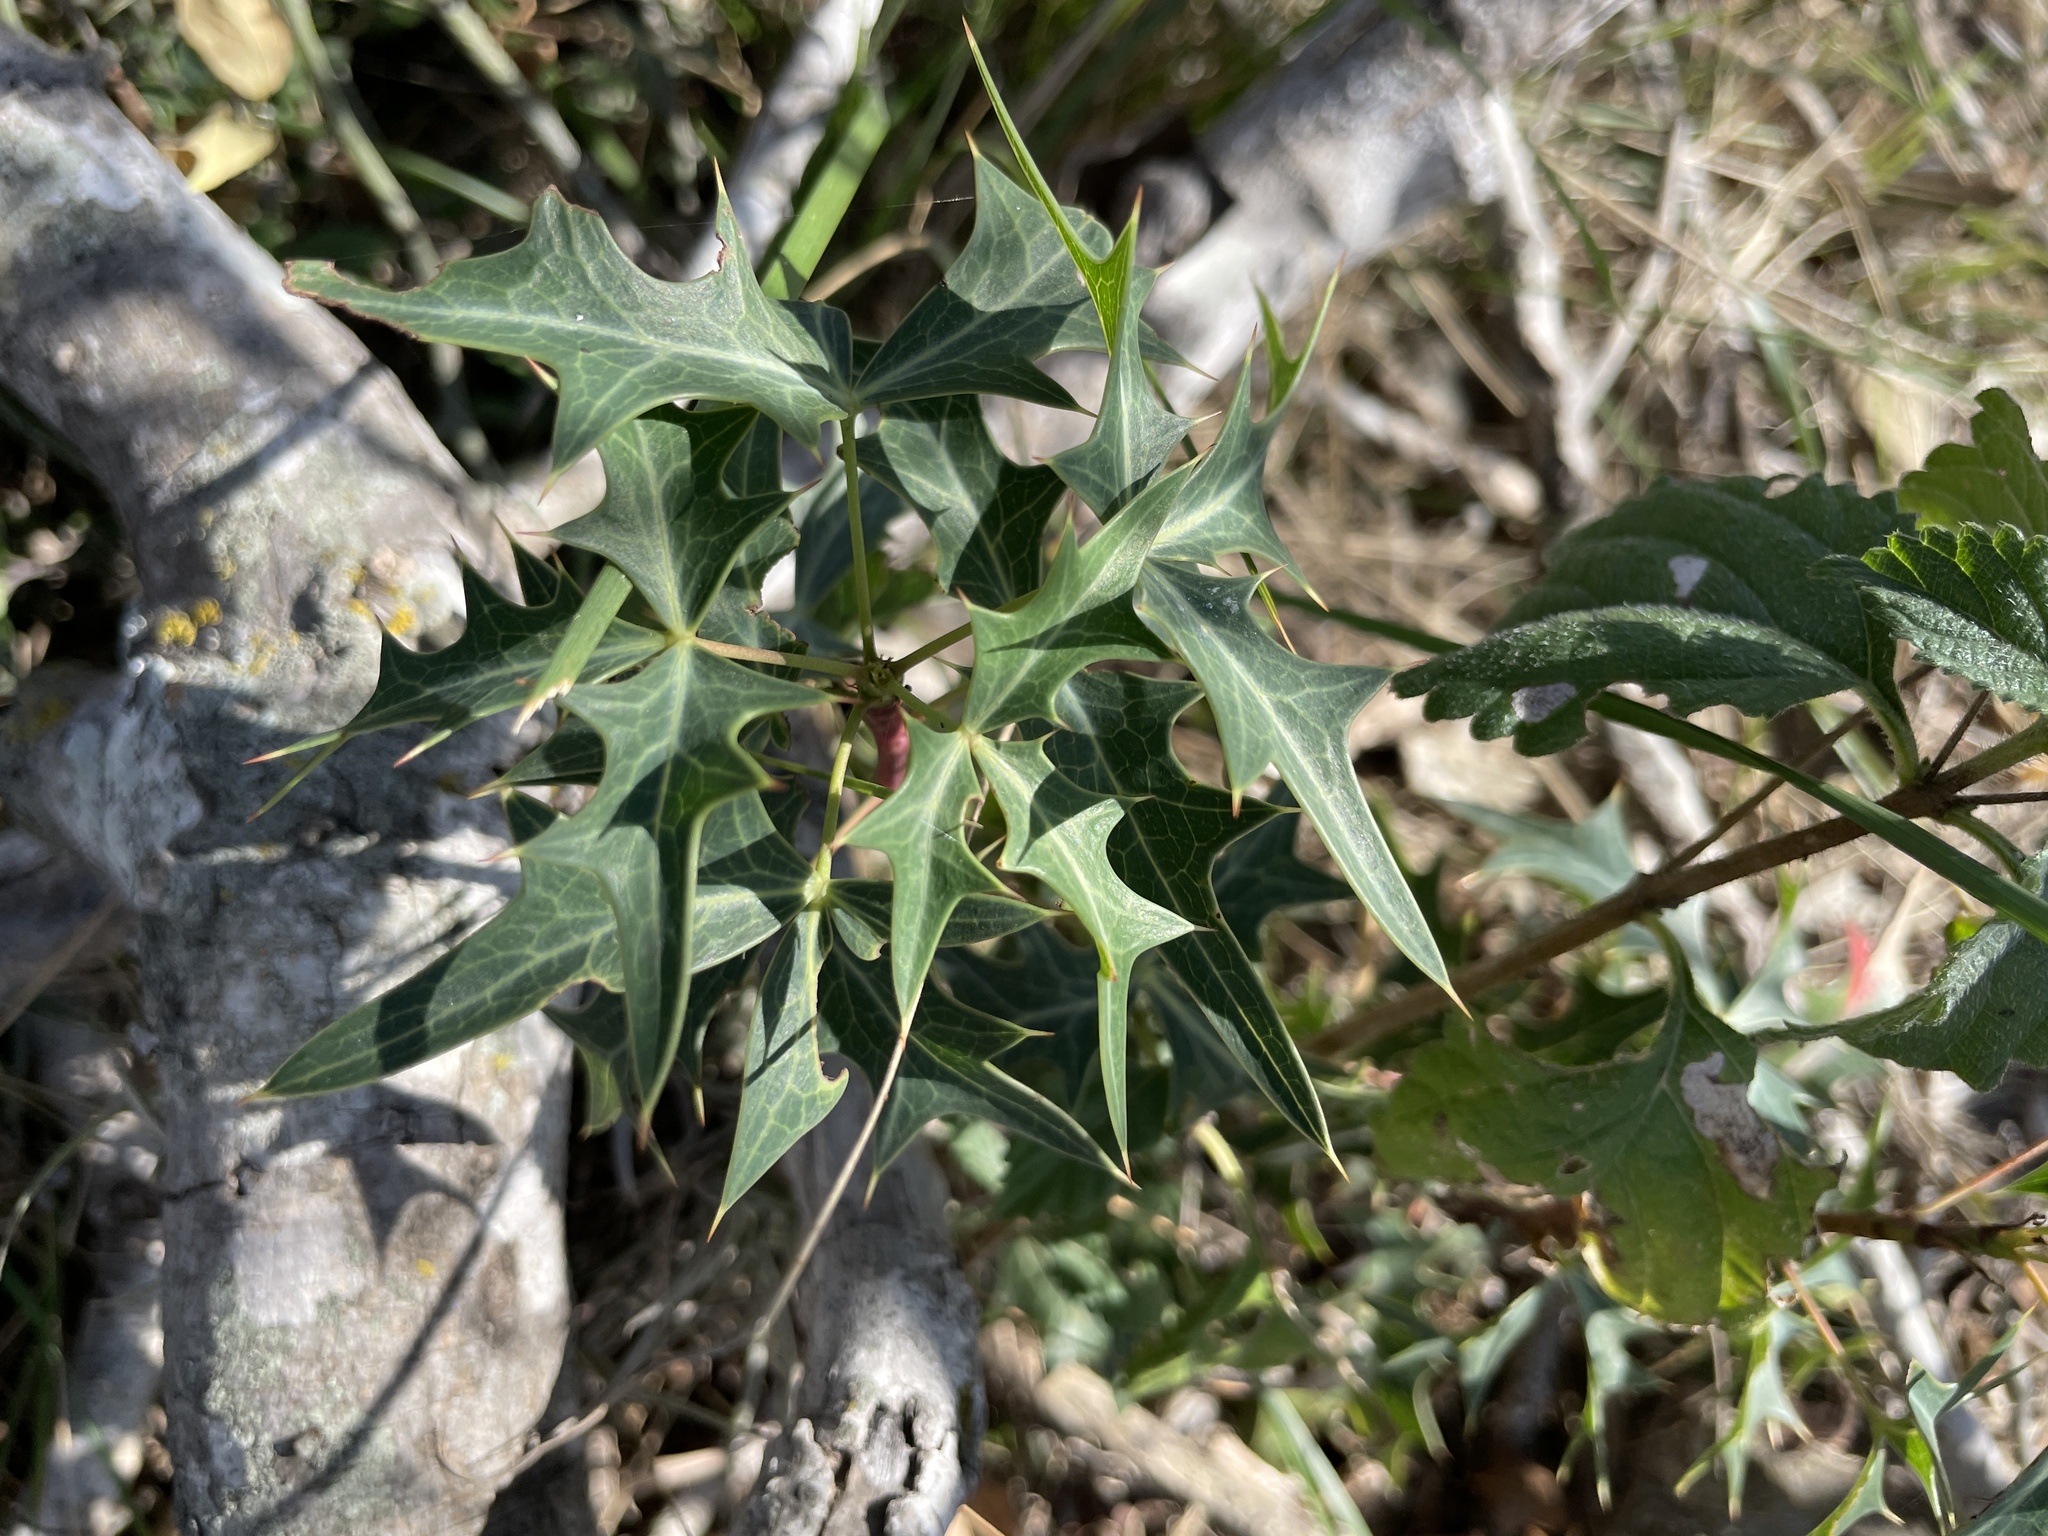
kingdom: Plantae
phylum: Tracheophyta
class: Magnoliopsida
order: Ranunculales
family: Berberidaceae
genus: Alloberberis
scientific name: Alloberberis trifoliolata
